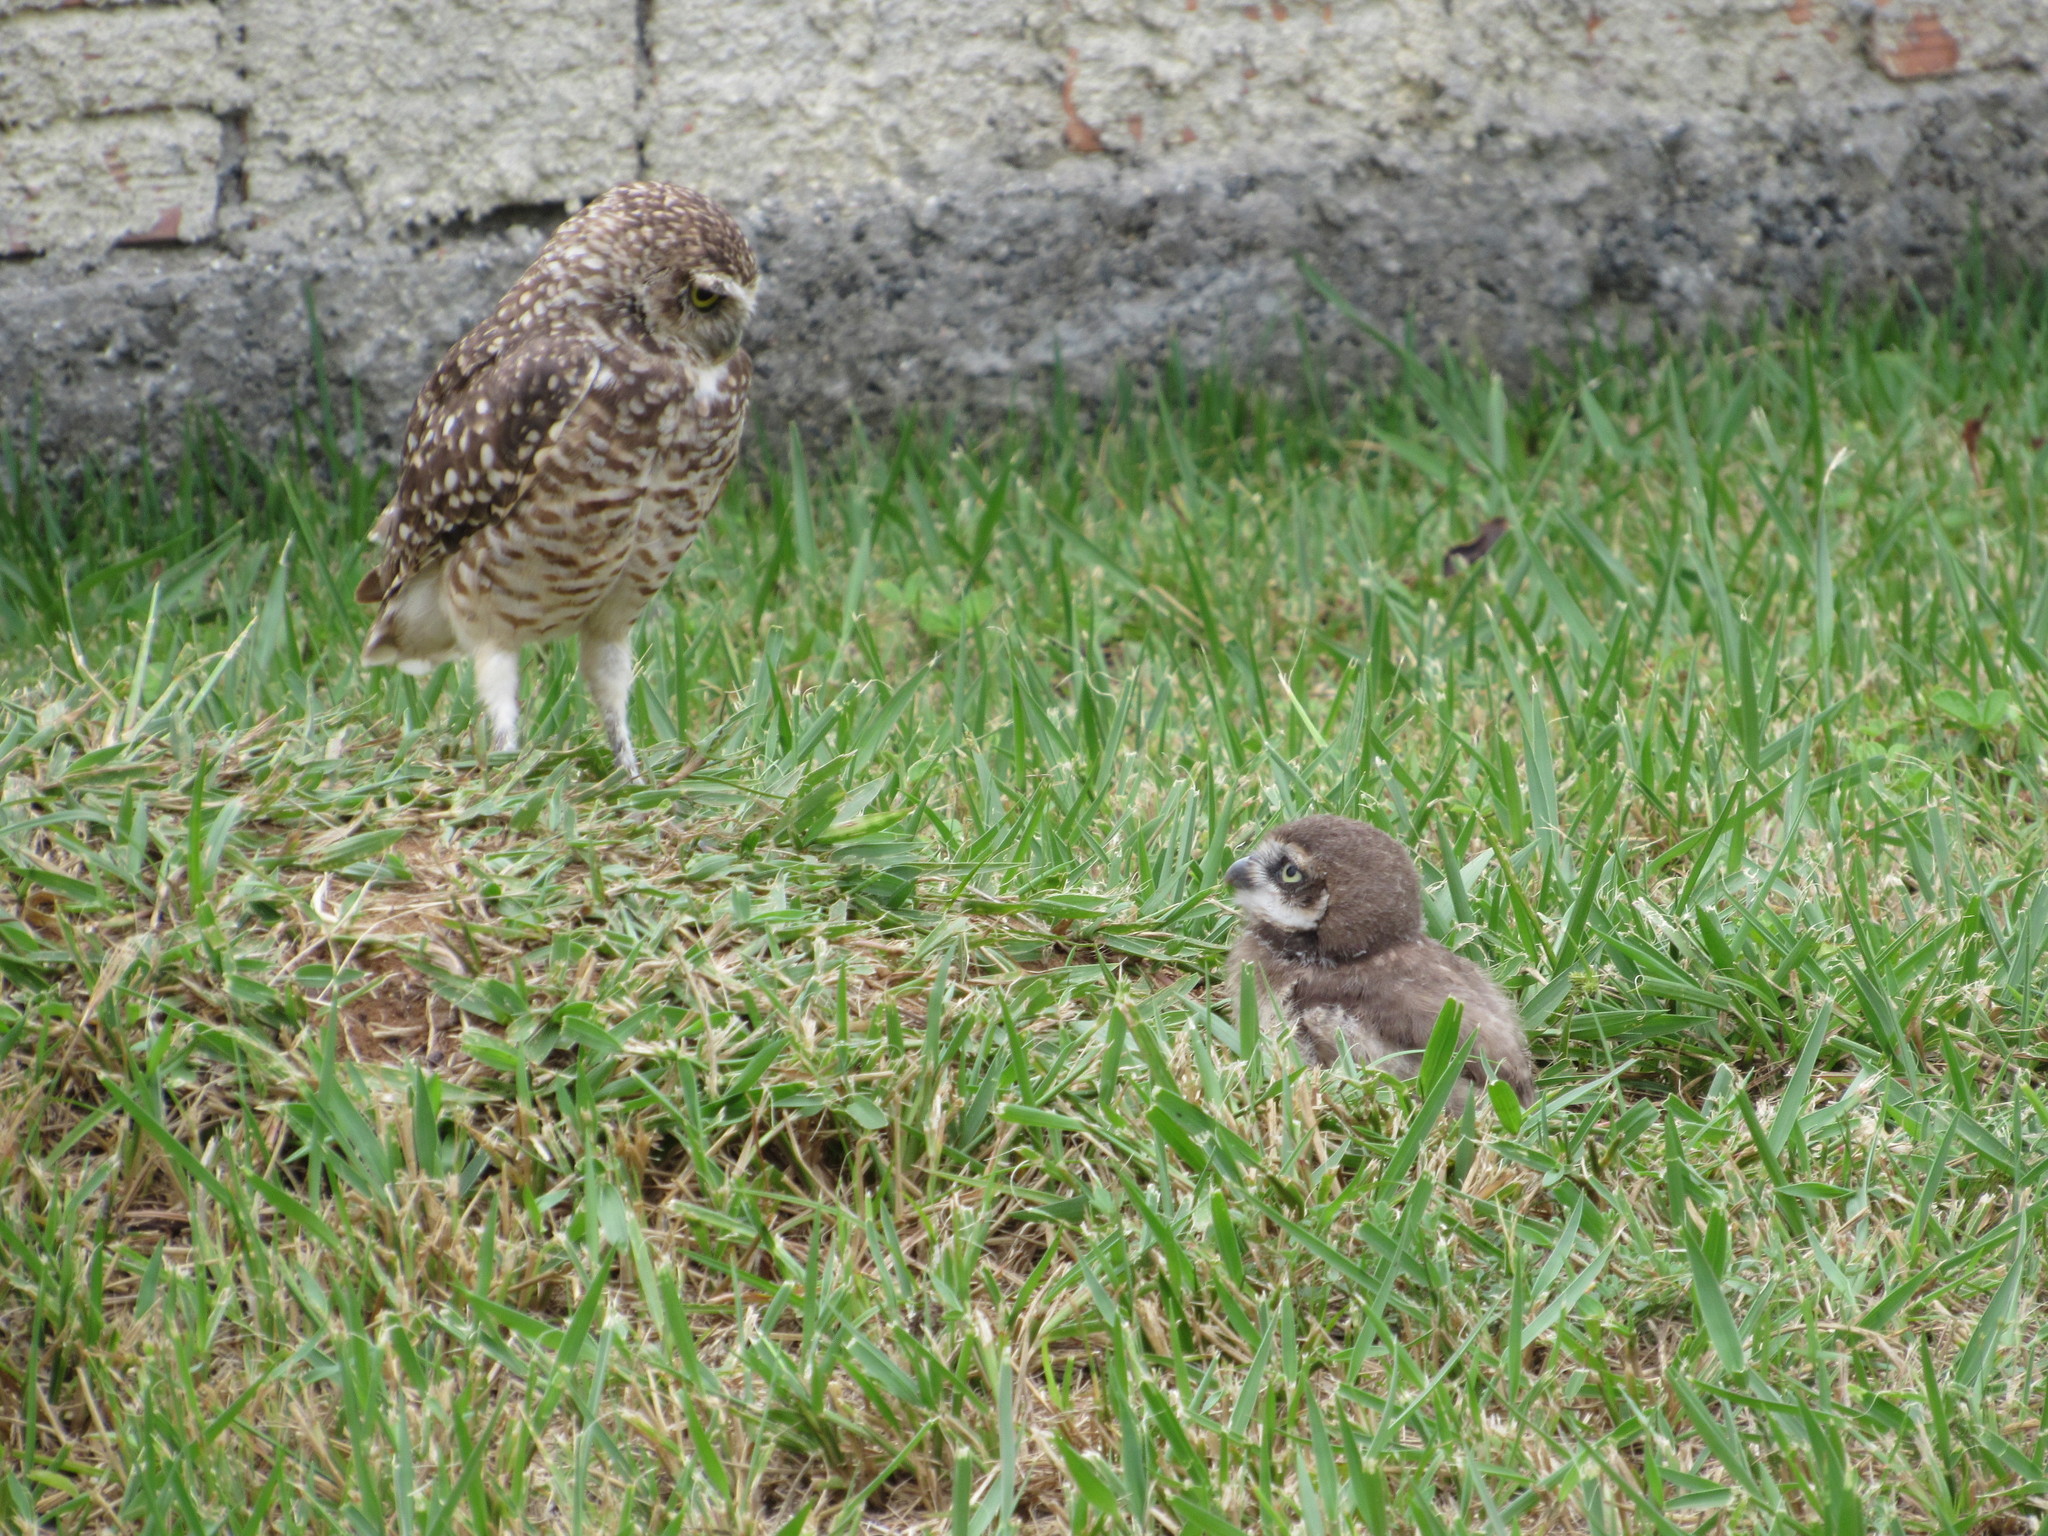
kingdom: Animalia
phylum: Chordata
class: Aves
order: Strigiformes
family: Strigidae
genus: Athene
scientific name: Athene cunicularia
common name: Burrowing owl
